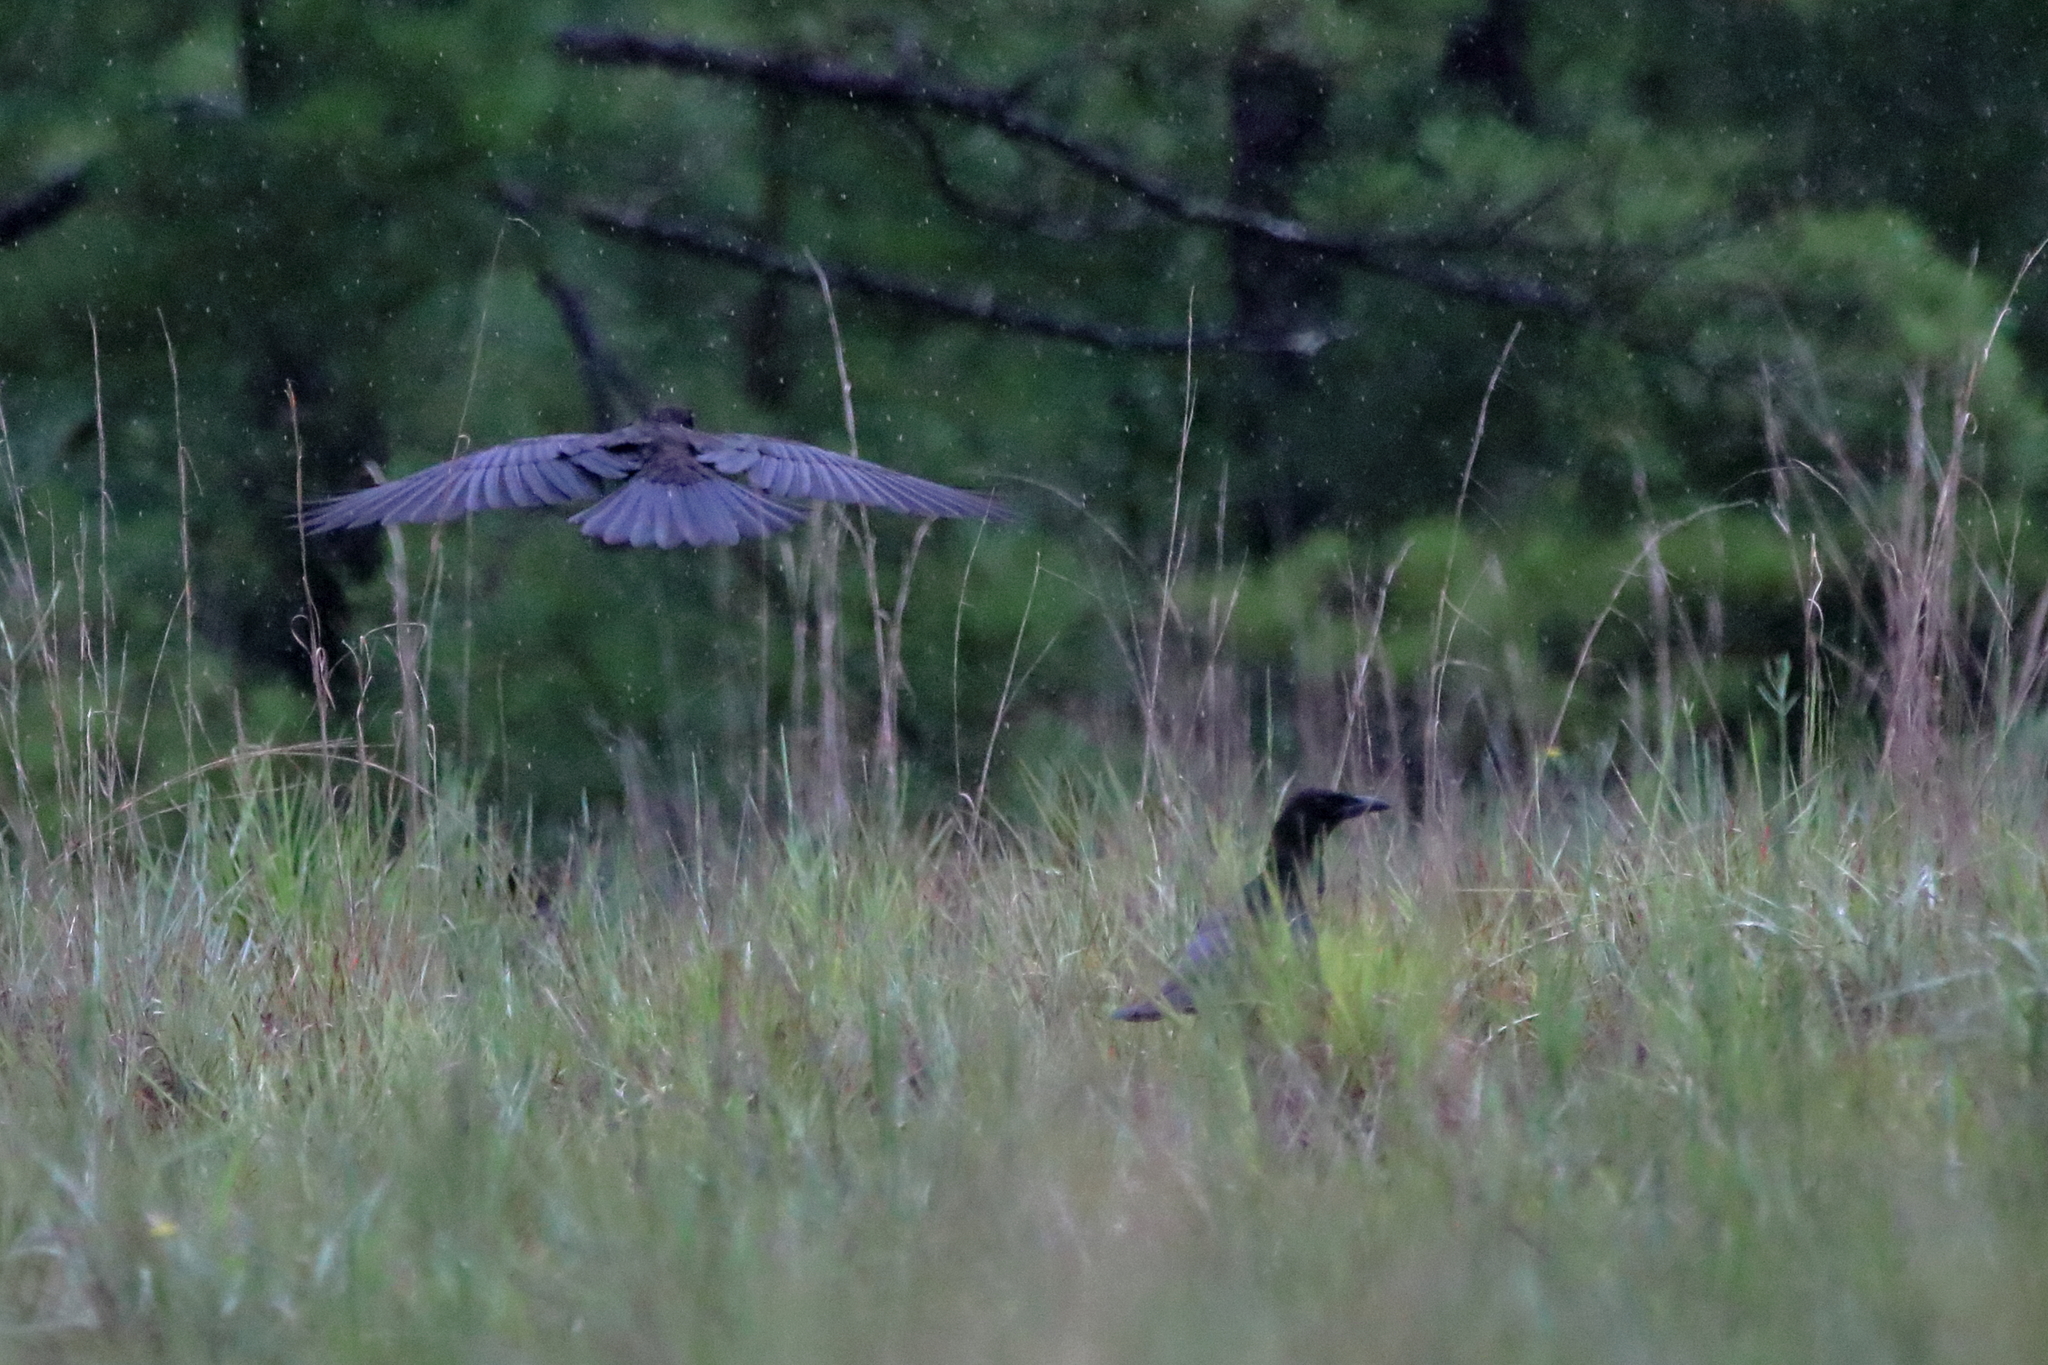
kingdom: Animalia
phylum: Chordata
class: Aves
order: Passeriformes
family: Corvidae
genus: Corvus
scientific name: Corvus brachyrhynchos
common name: American crow
